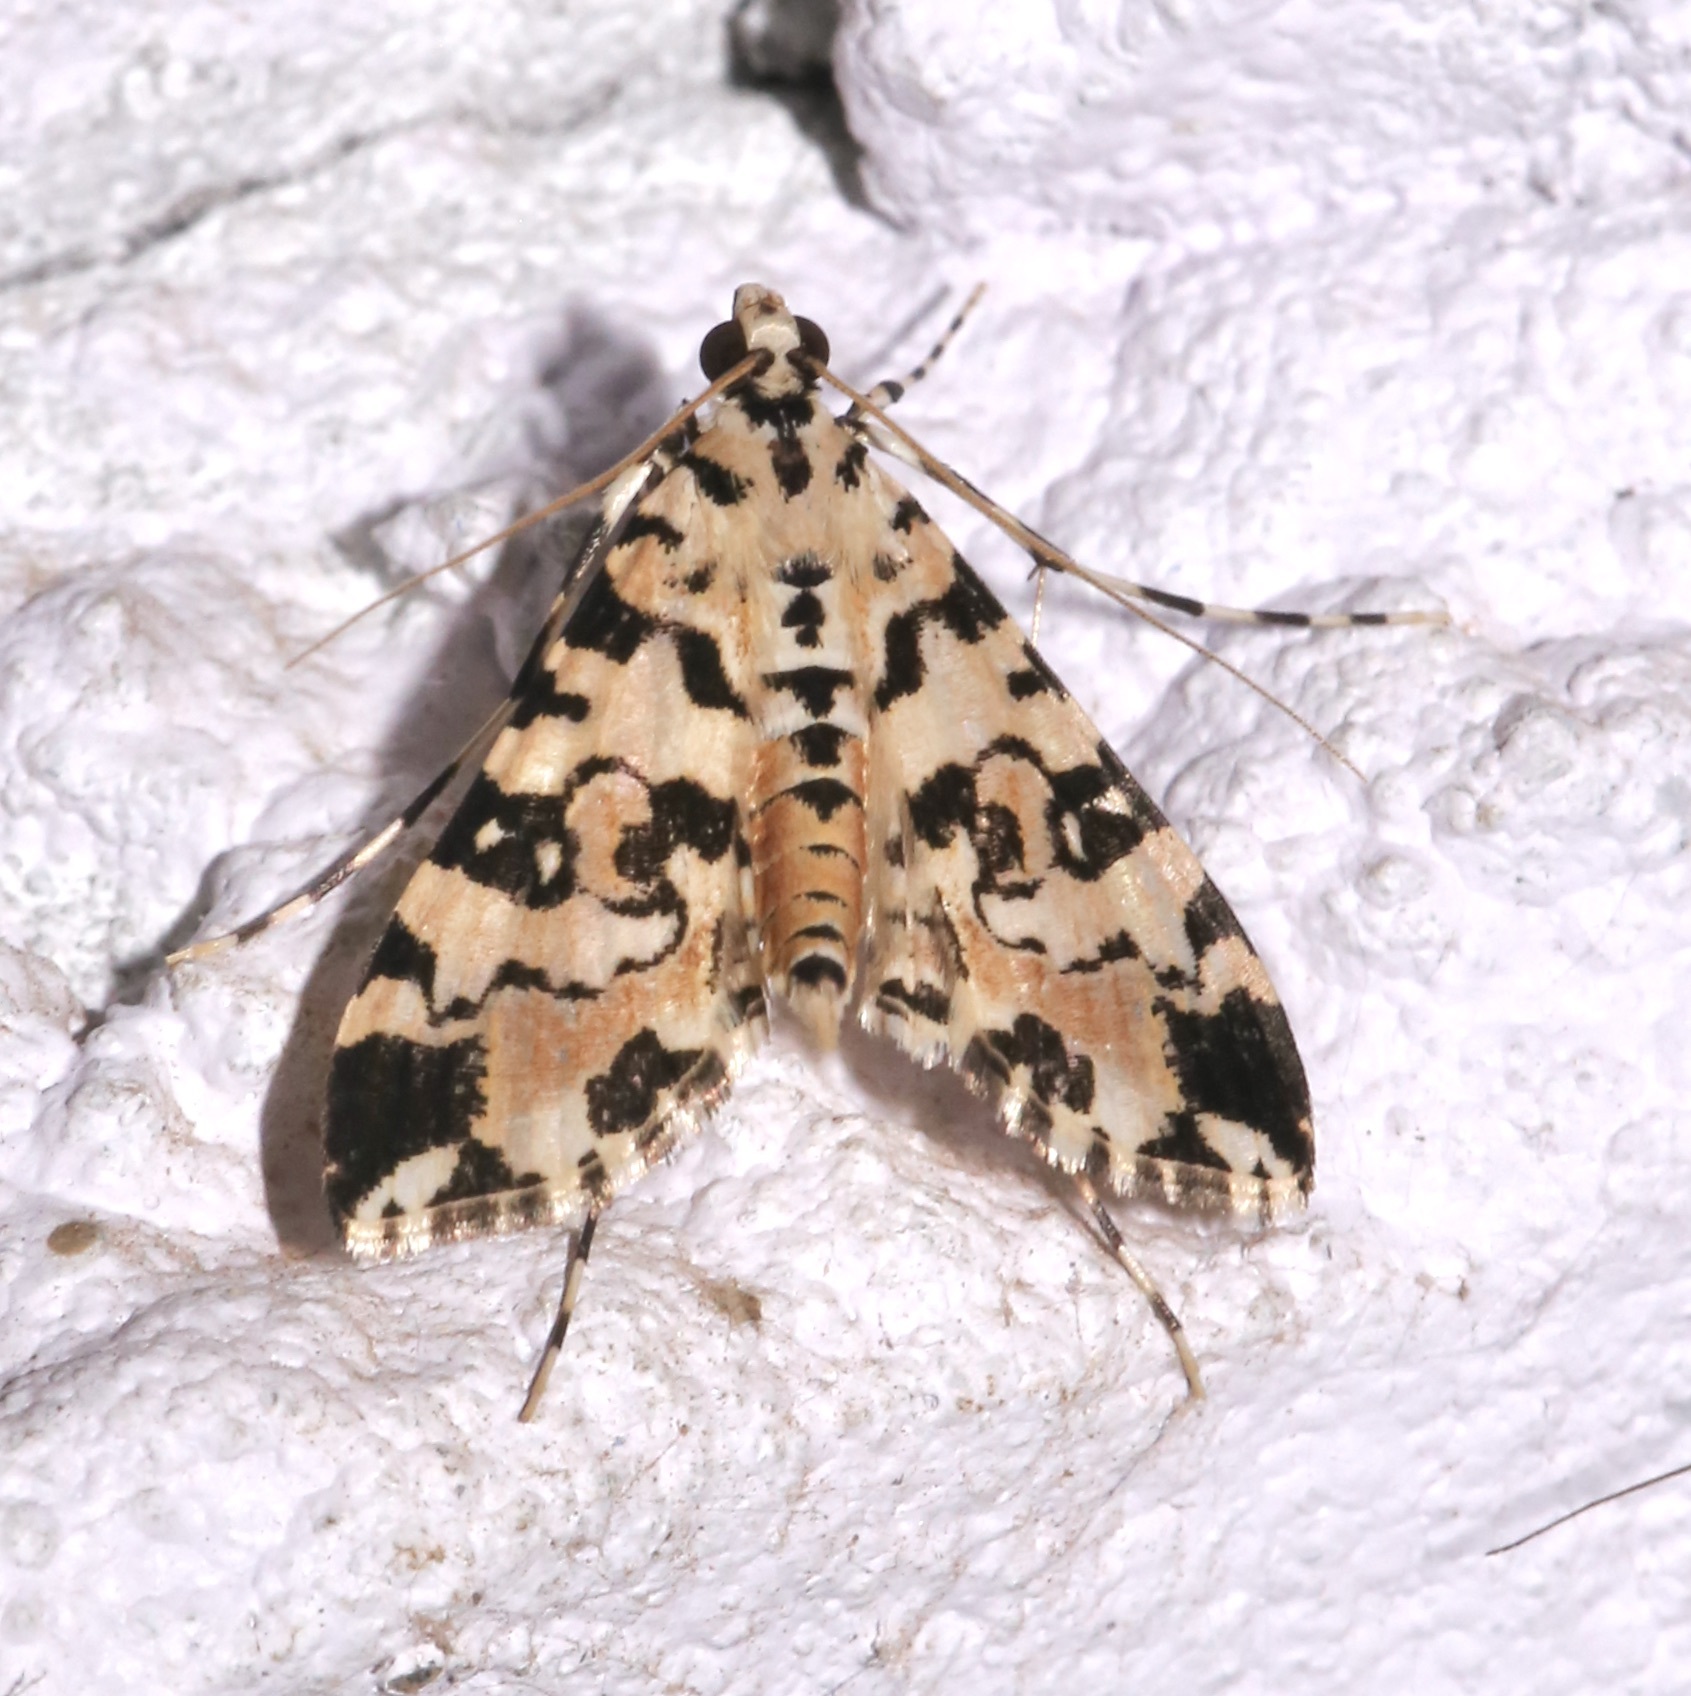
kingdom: Animalia
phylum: Arthropoda
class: Insecta
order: Lepidoptera
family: Crambidae
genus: Conchylodes
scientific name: Conchylodes bryophilalis
